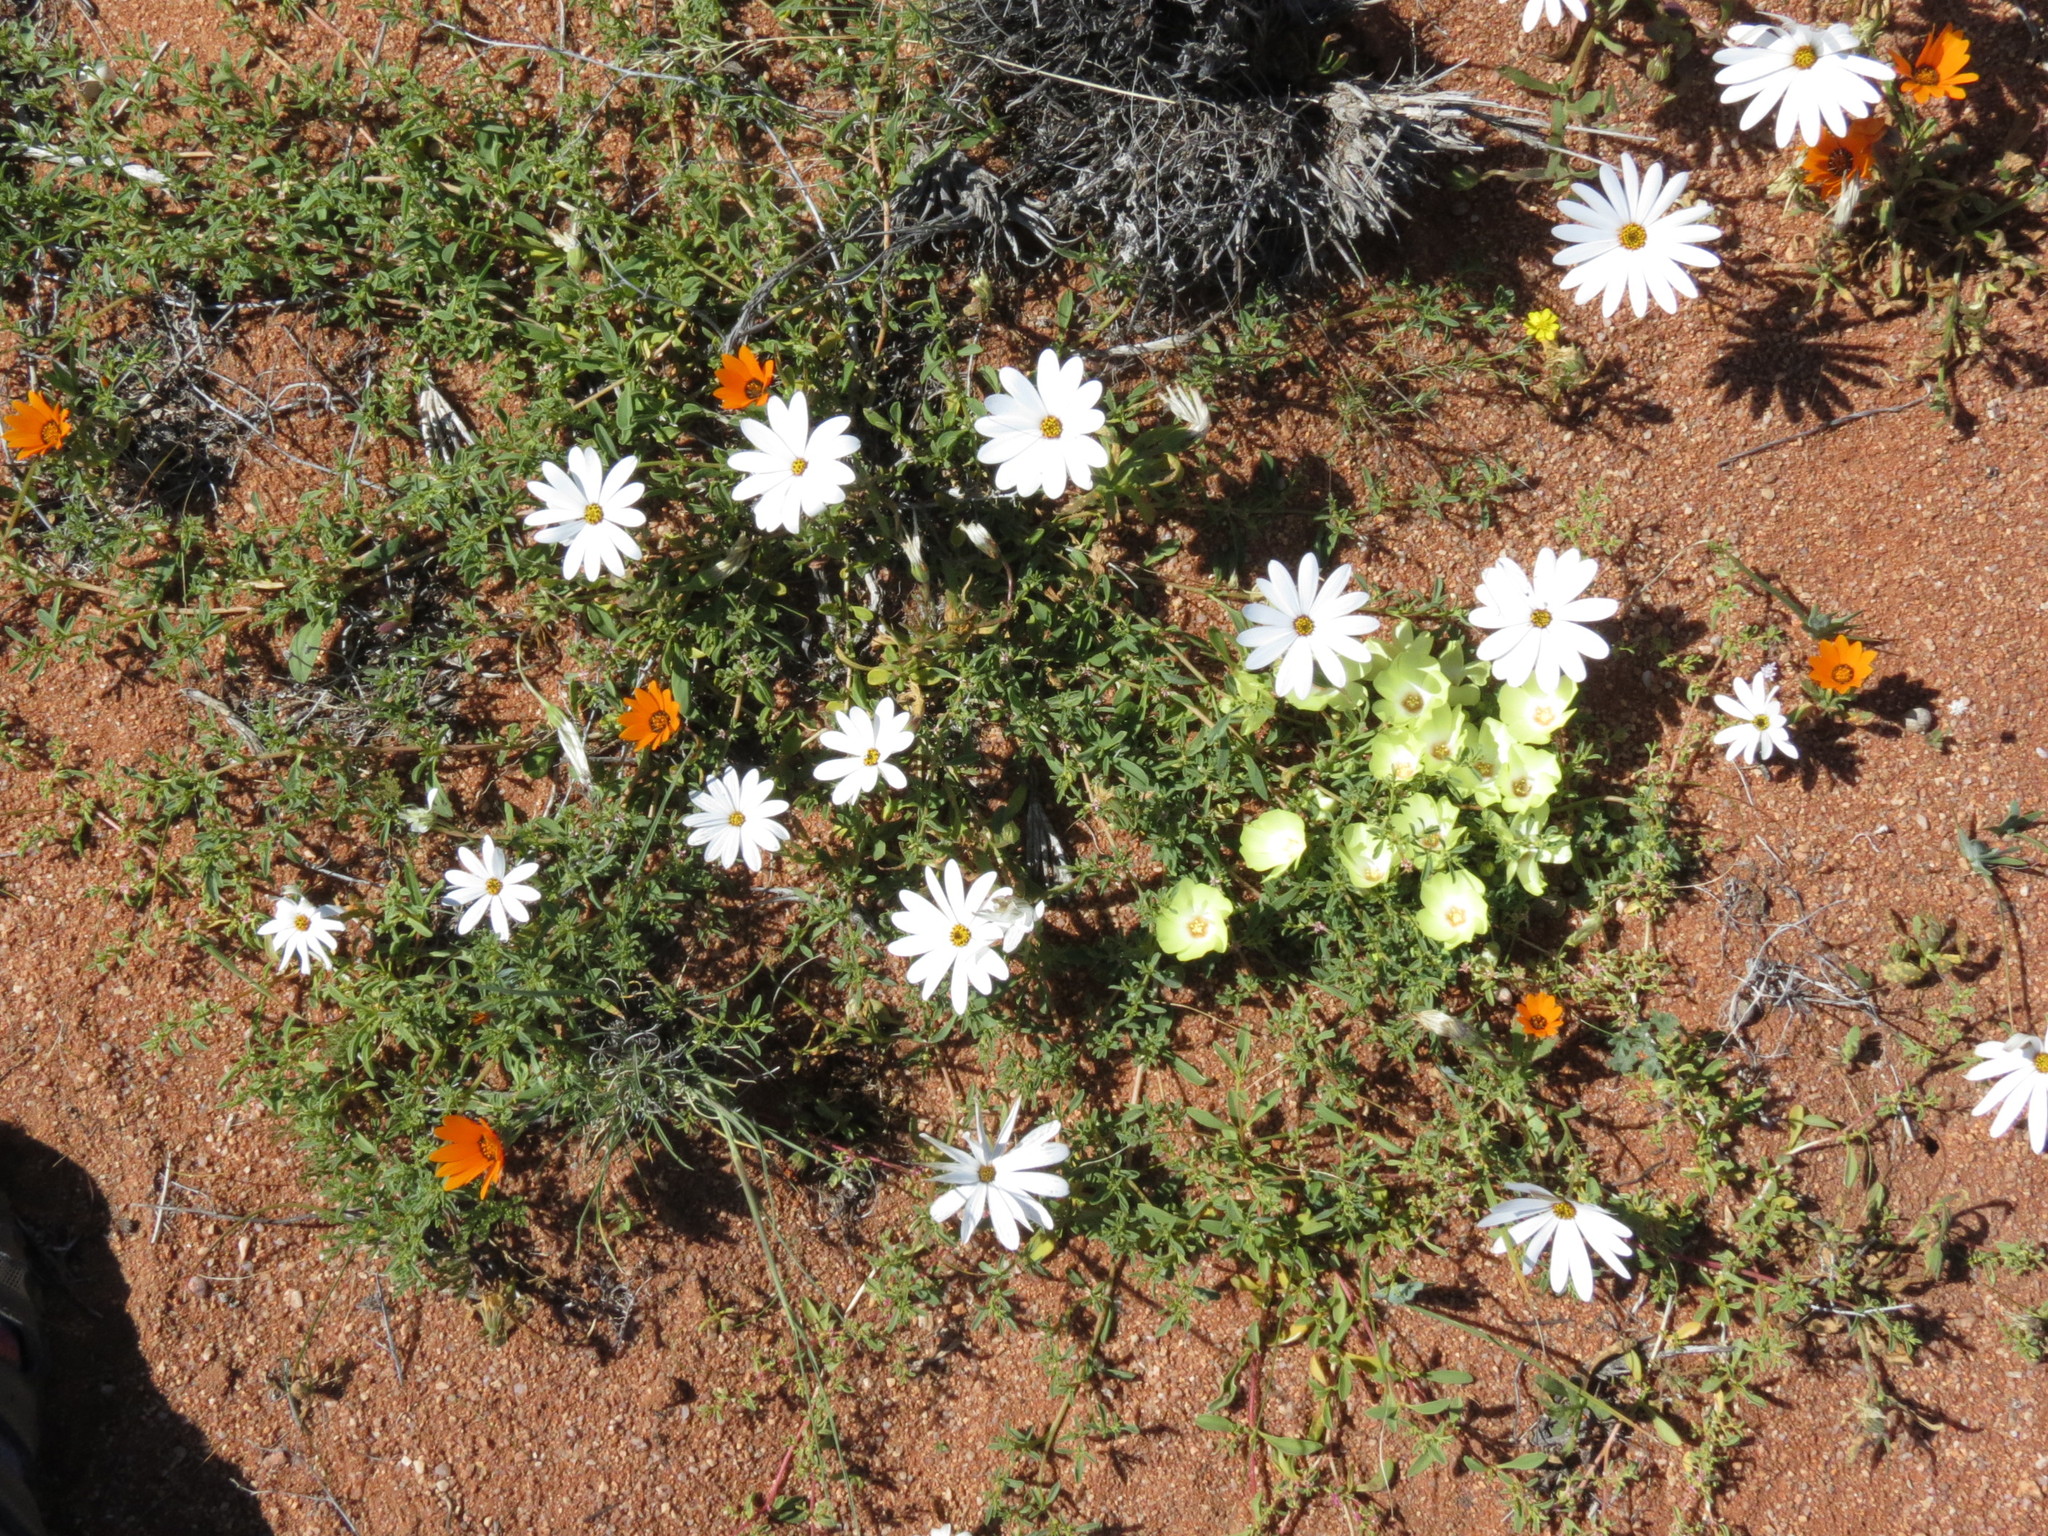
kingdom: Plantae
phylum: Tracheophyta
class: Magnoliopsida
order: Asterales
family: Asteraceae
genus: Dimorphotheca
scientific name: Dimorphotheca pluvialis
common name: Weather prophet
